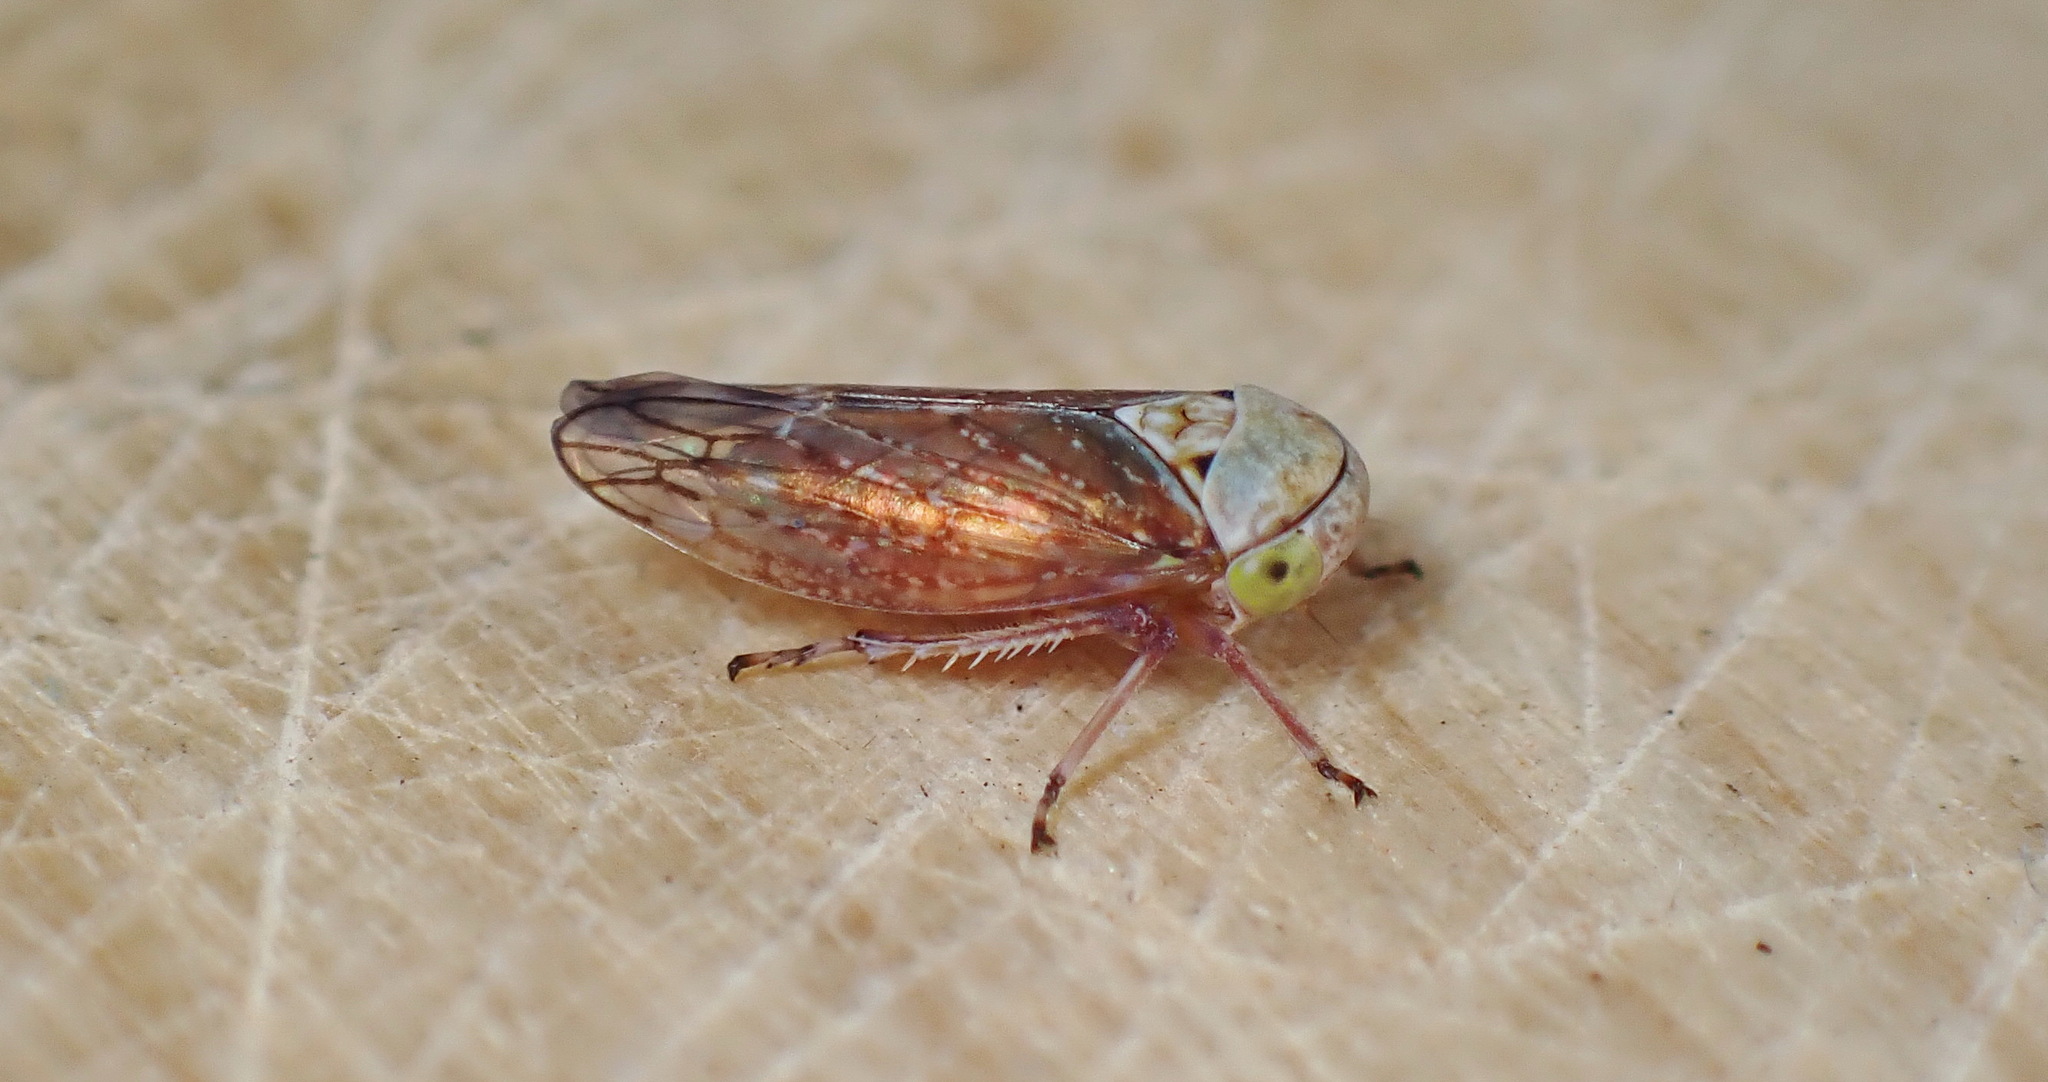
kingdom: Animalia
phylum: Arthropoda
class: Insecta
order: Hemiptera
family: Cicadellidae
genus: Acericerus
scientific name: Acericerus ribauti
